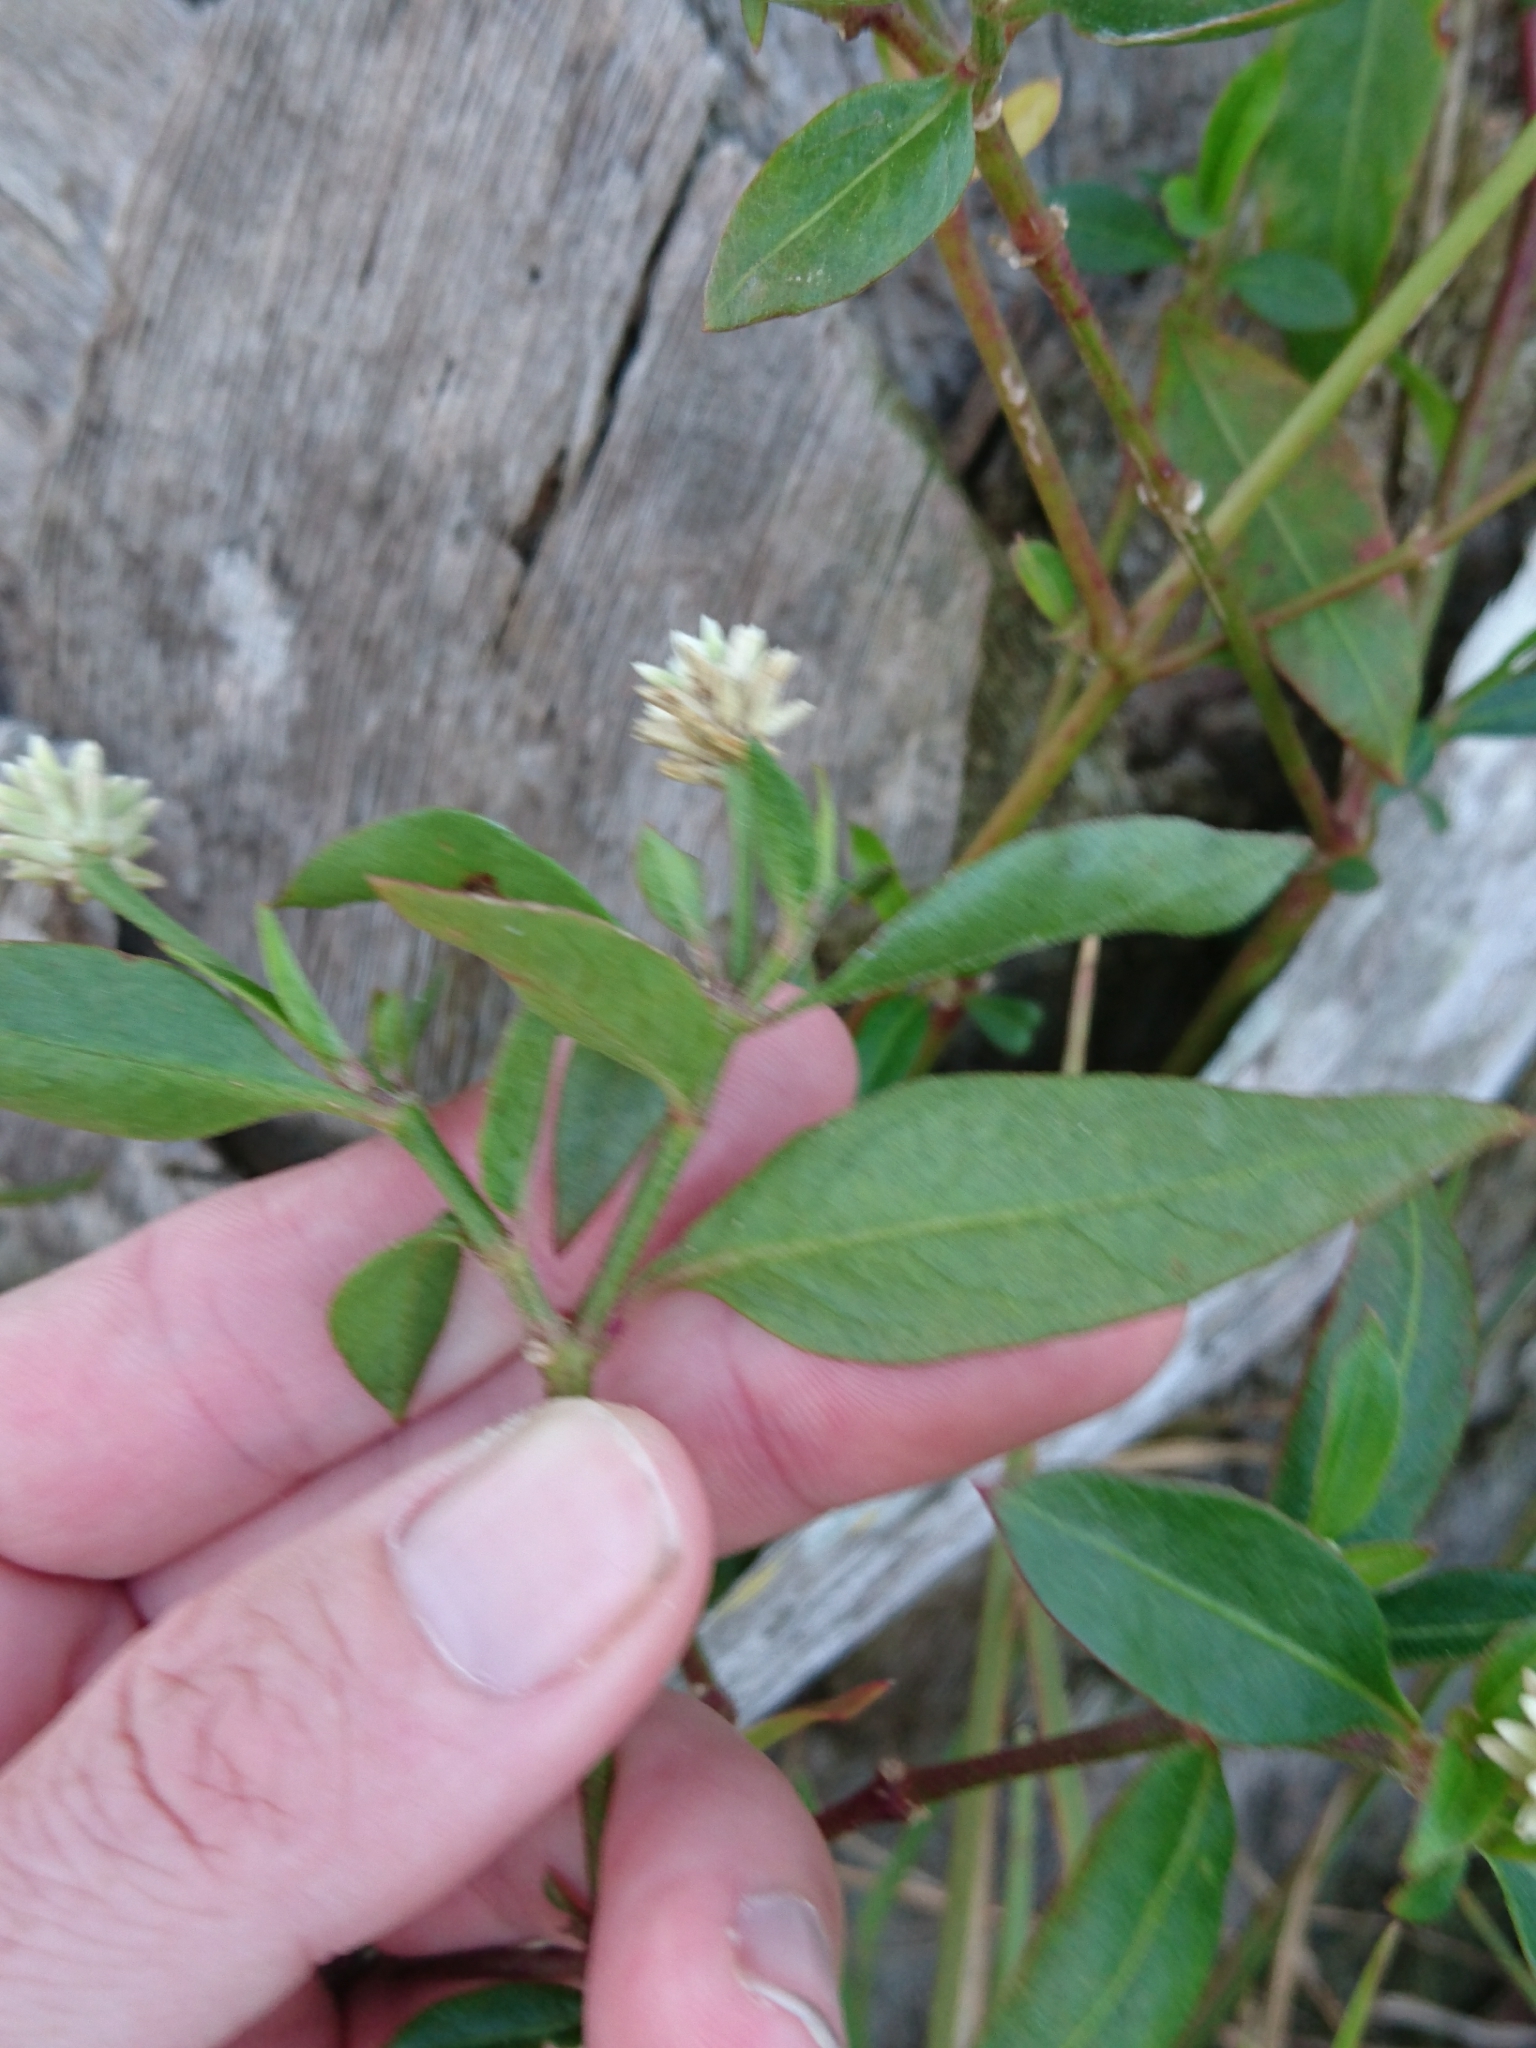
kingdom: Plantae
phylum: Tracheophyta
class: Magnoliopsida
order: Caryophyllales
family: Amaranthaceae
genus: Alternanthera
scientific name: Alternanthera philoxeroides
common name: Alligatorweed
